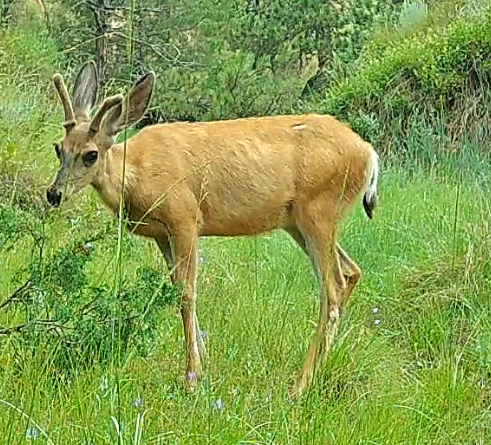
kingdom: Animalia
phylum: Chordata
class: Mammalia
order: Artiodactyla
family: Cervidae
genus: Odocoileus
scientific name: Odocoileus hemionus
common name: Mule deer
